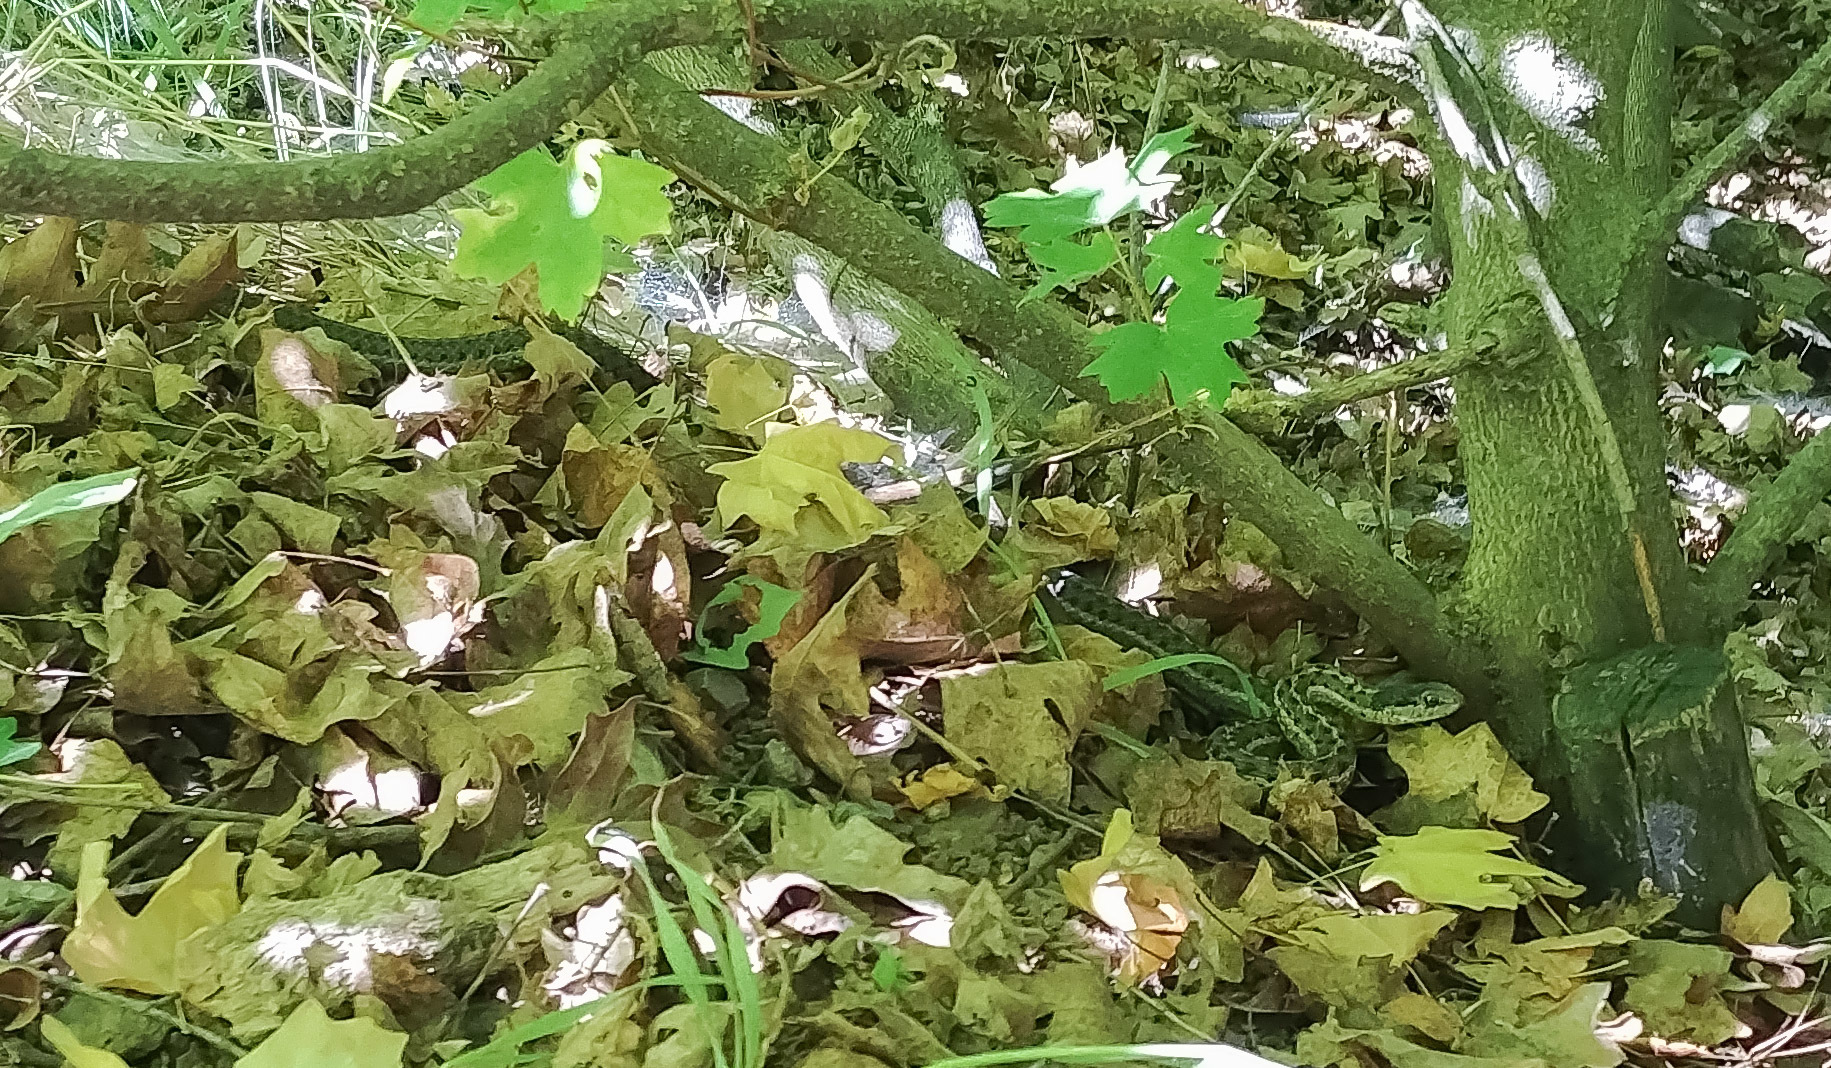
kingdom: Animalia
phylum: Chordata
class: Squamata
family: Colubridae
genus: Thamnophis
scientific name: Thamnophis elegans
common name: Western terrestrial garter snake
